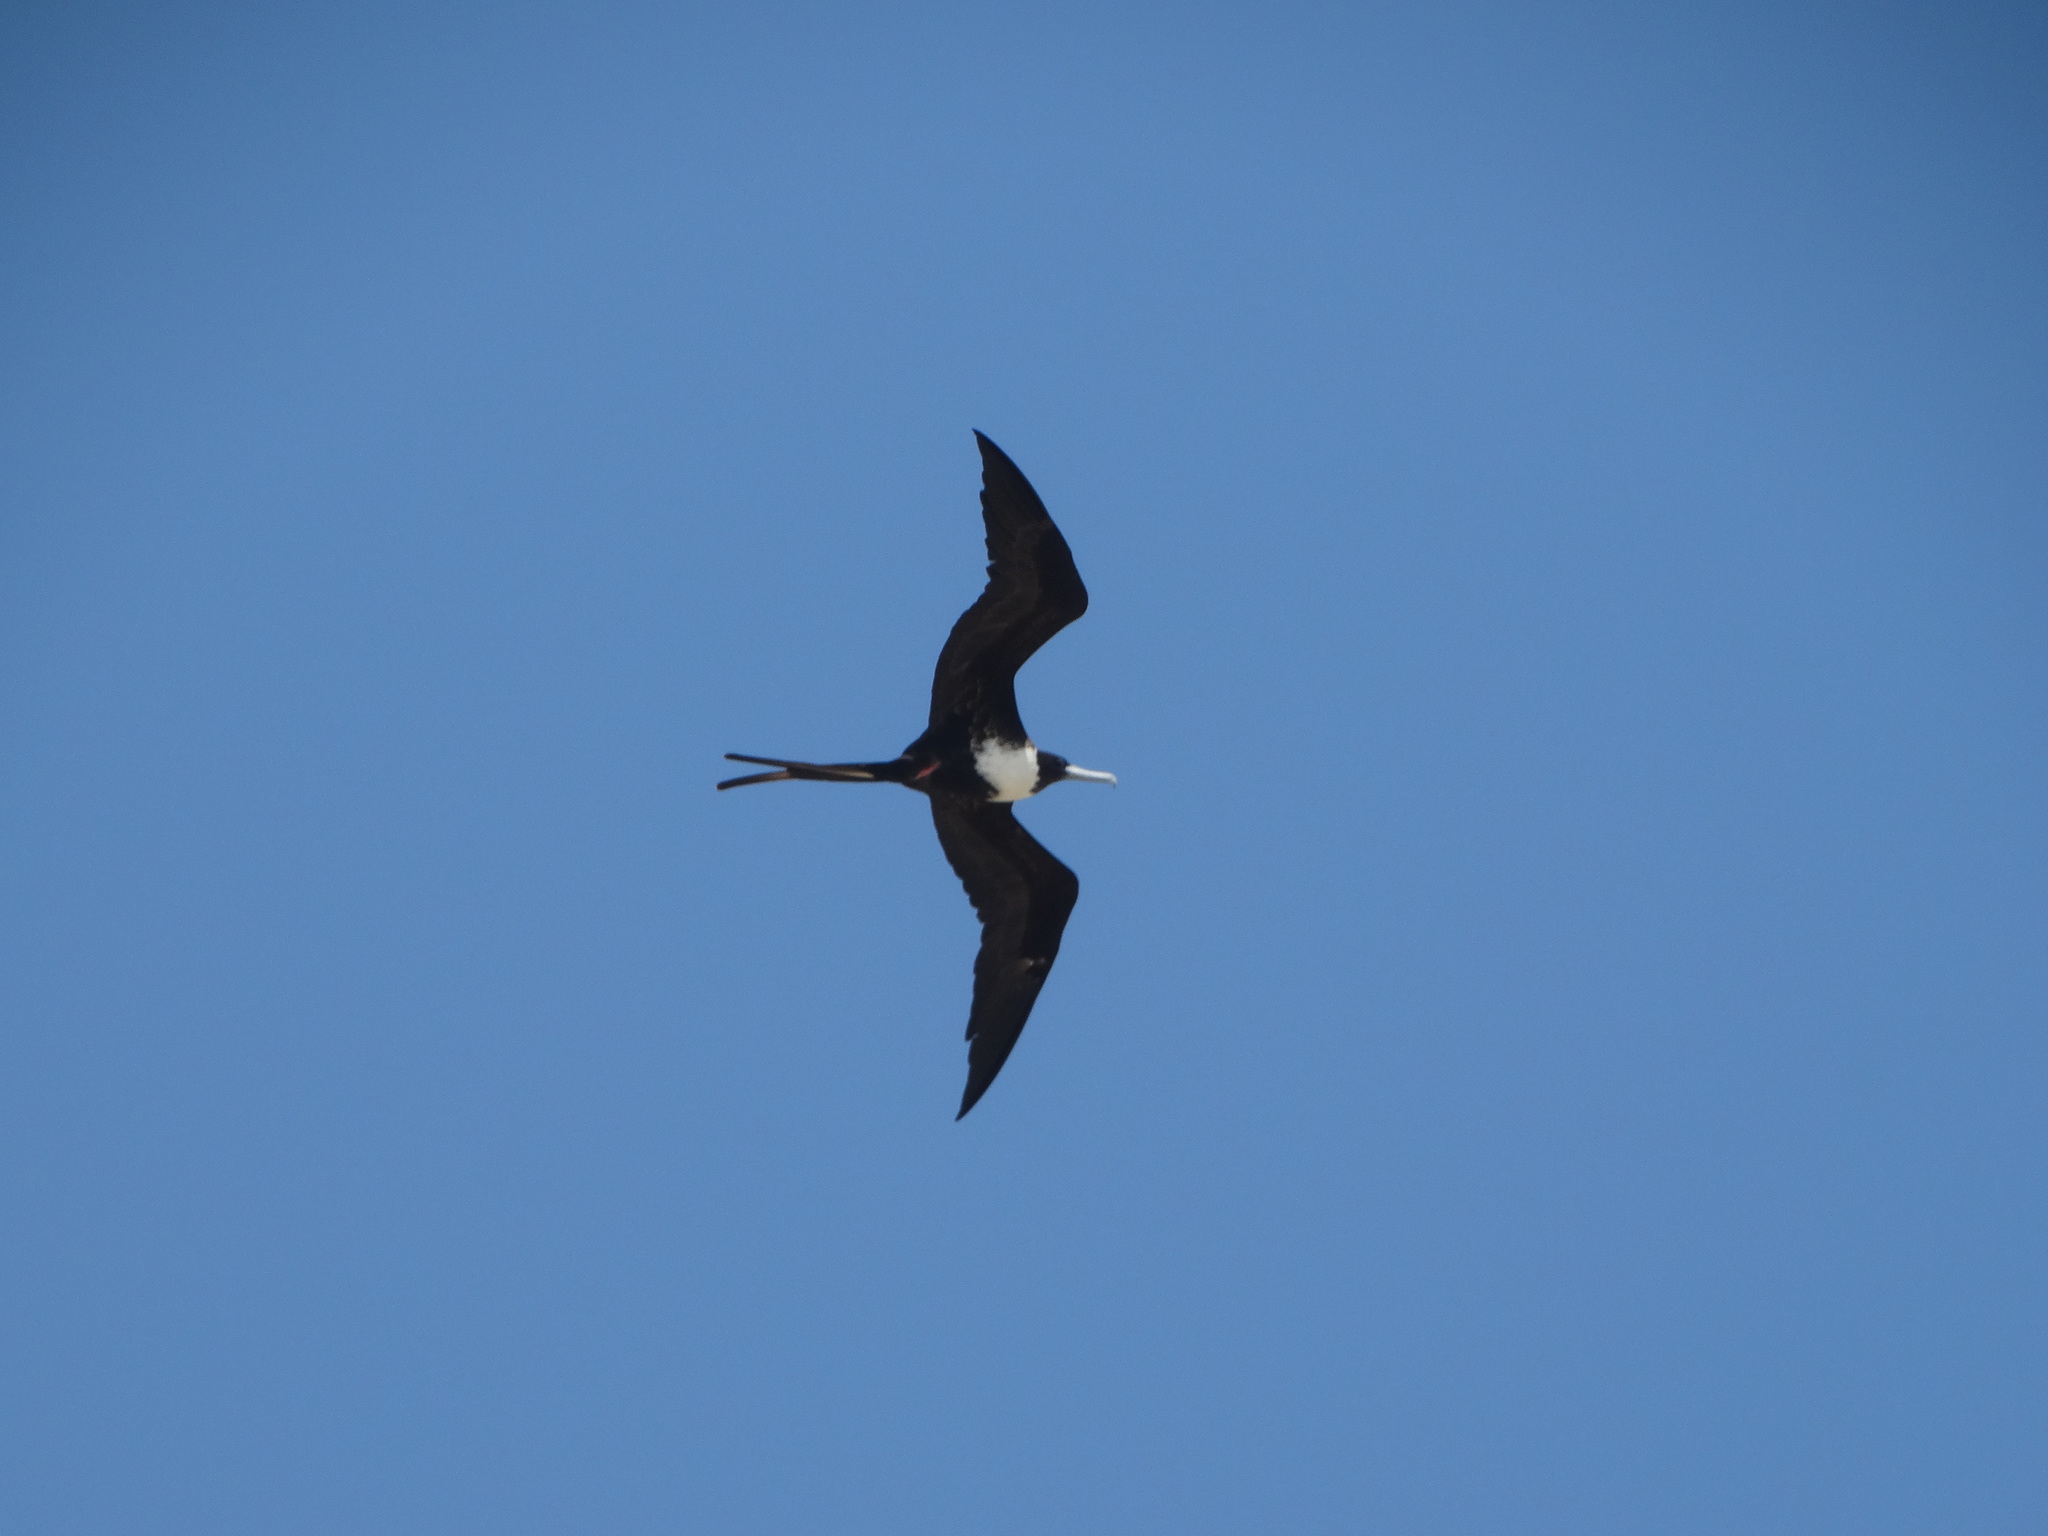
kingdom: Animalia
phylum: Chordata
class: Aves
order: Suliformes
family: Fregatidae
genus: Fregata
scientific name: Fregata magnificens
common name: Magnificent frigatebird
